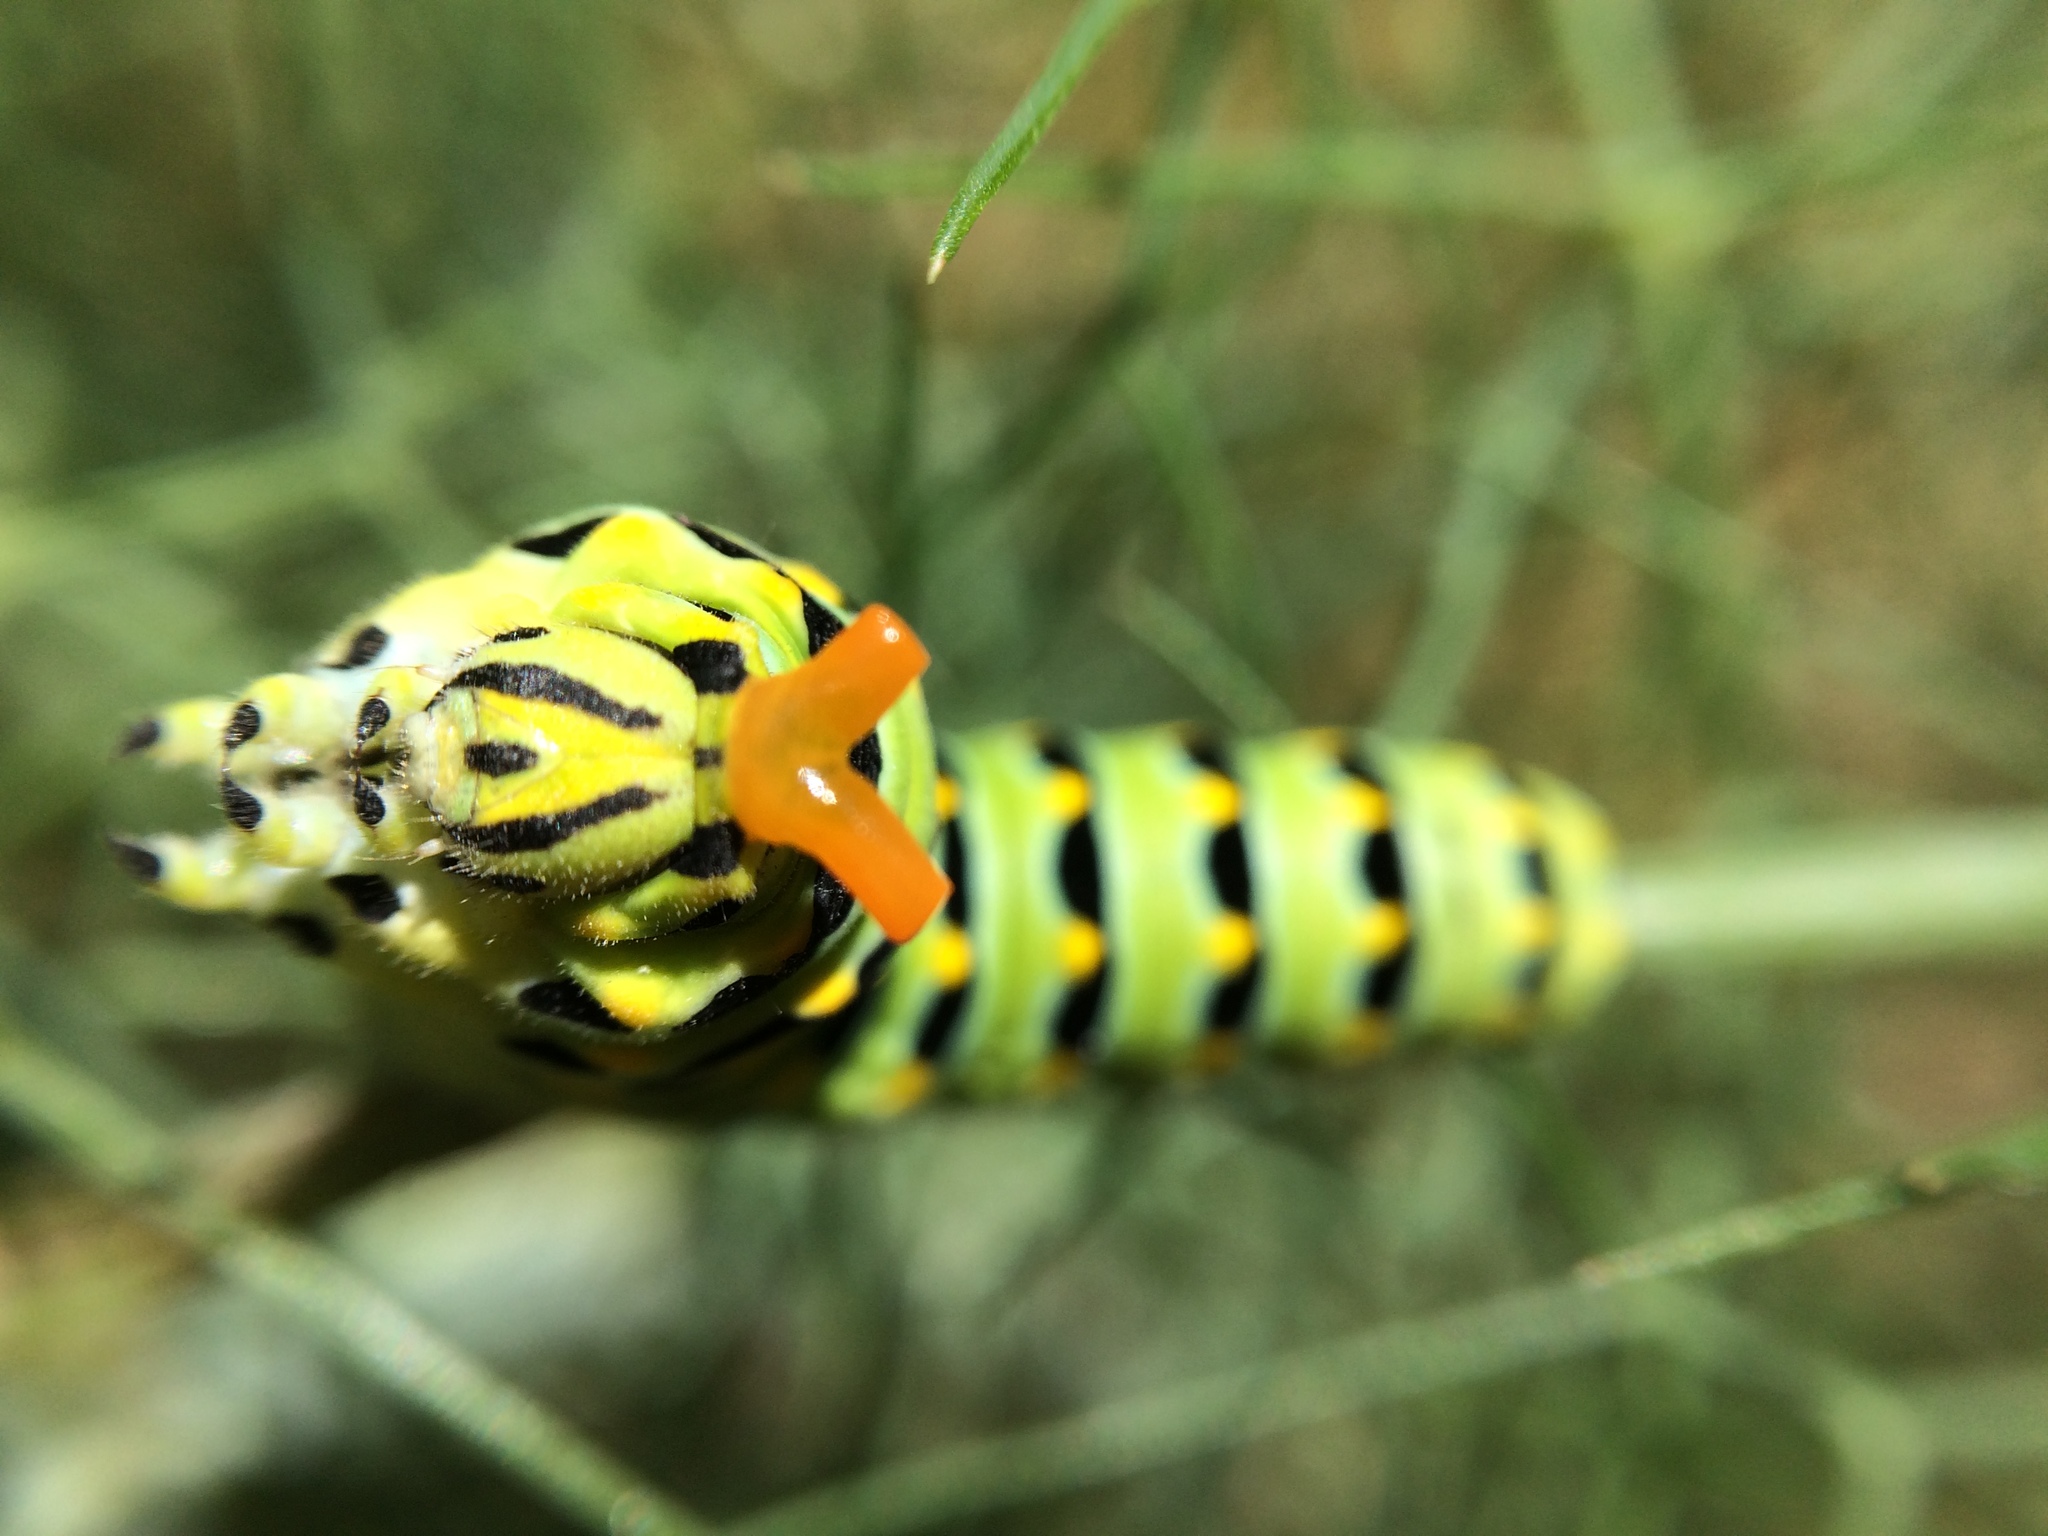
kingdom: Animalia
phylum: Arthropoda
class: Insecta
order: Lepidoptera
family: Papilionidae
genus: Papilio
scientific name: Papilio zelicaon
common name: Anise swallowtail
